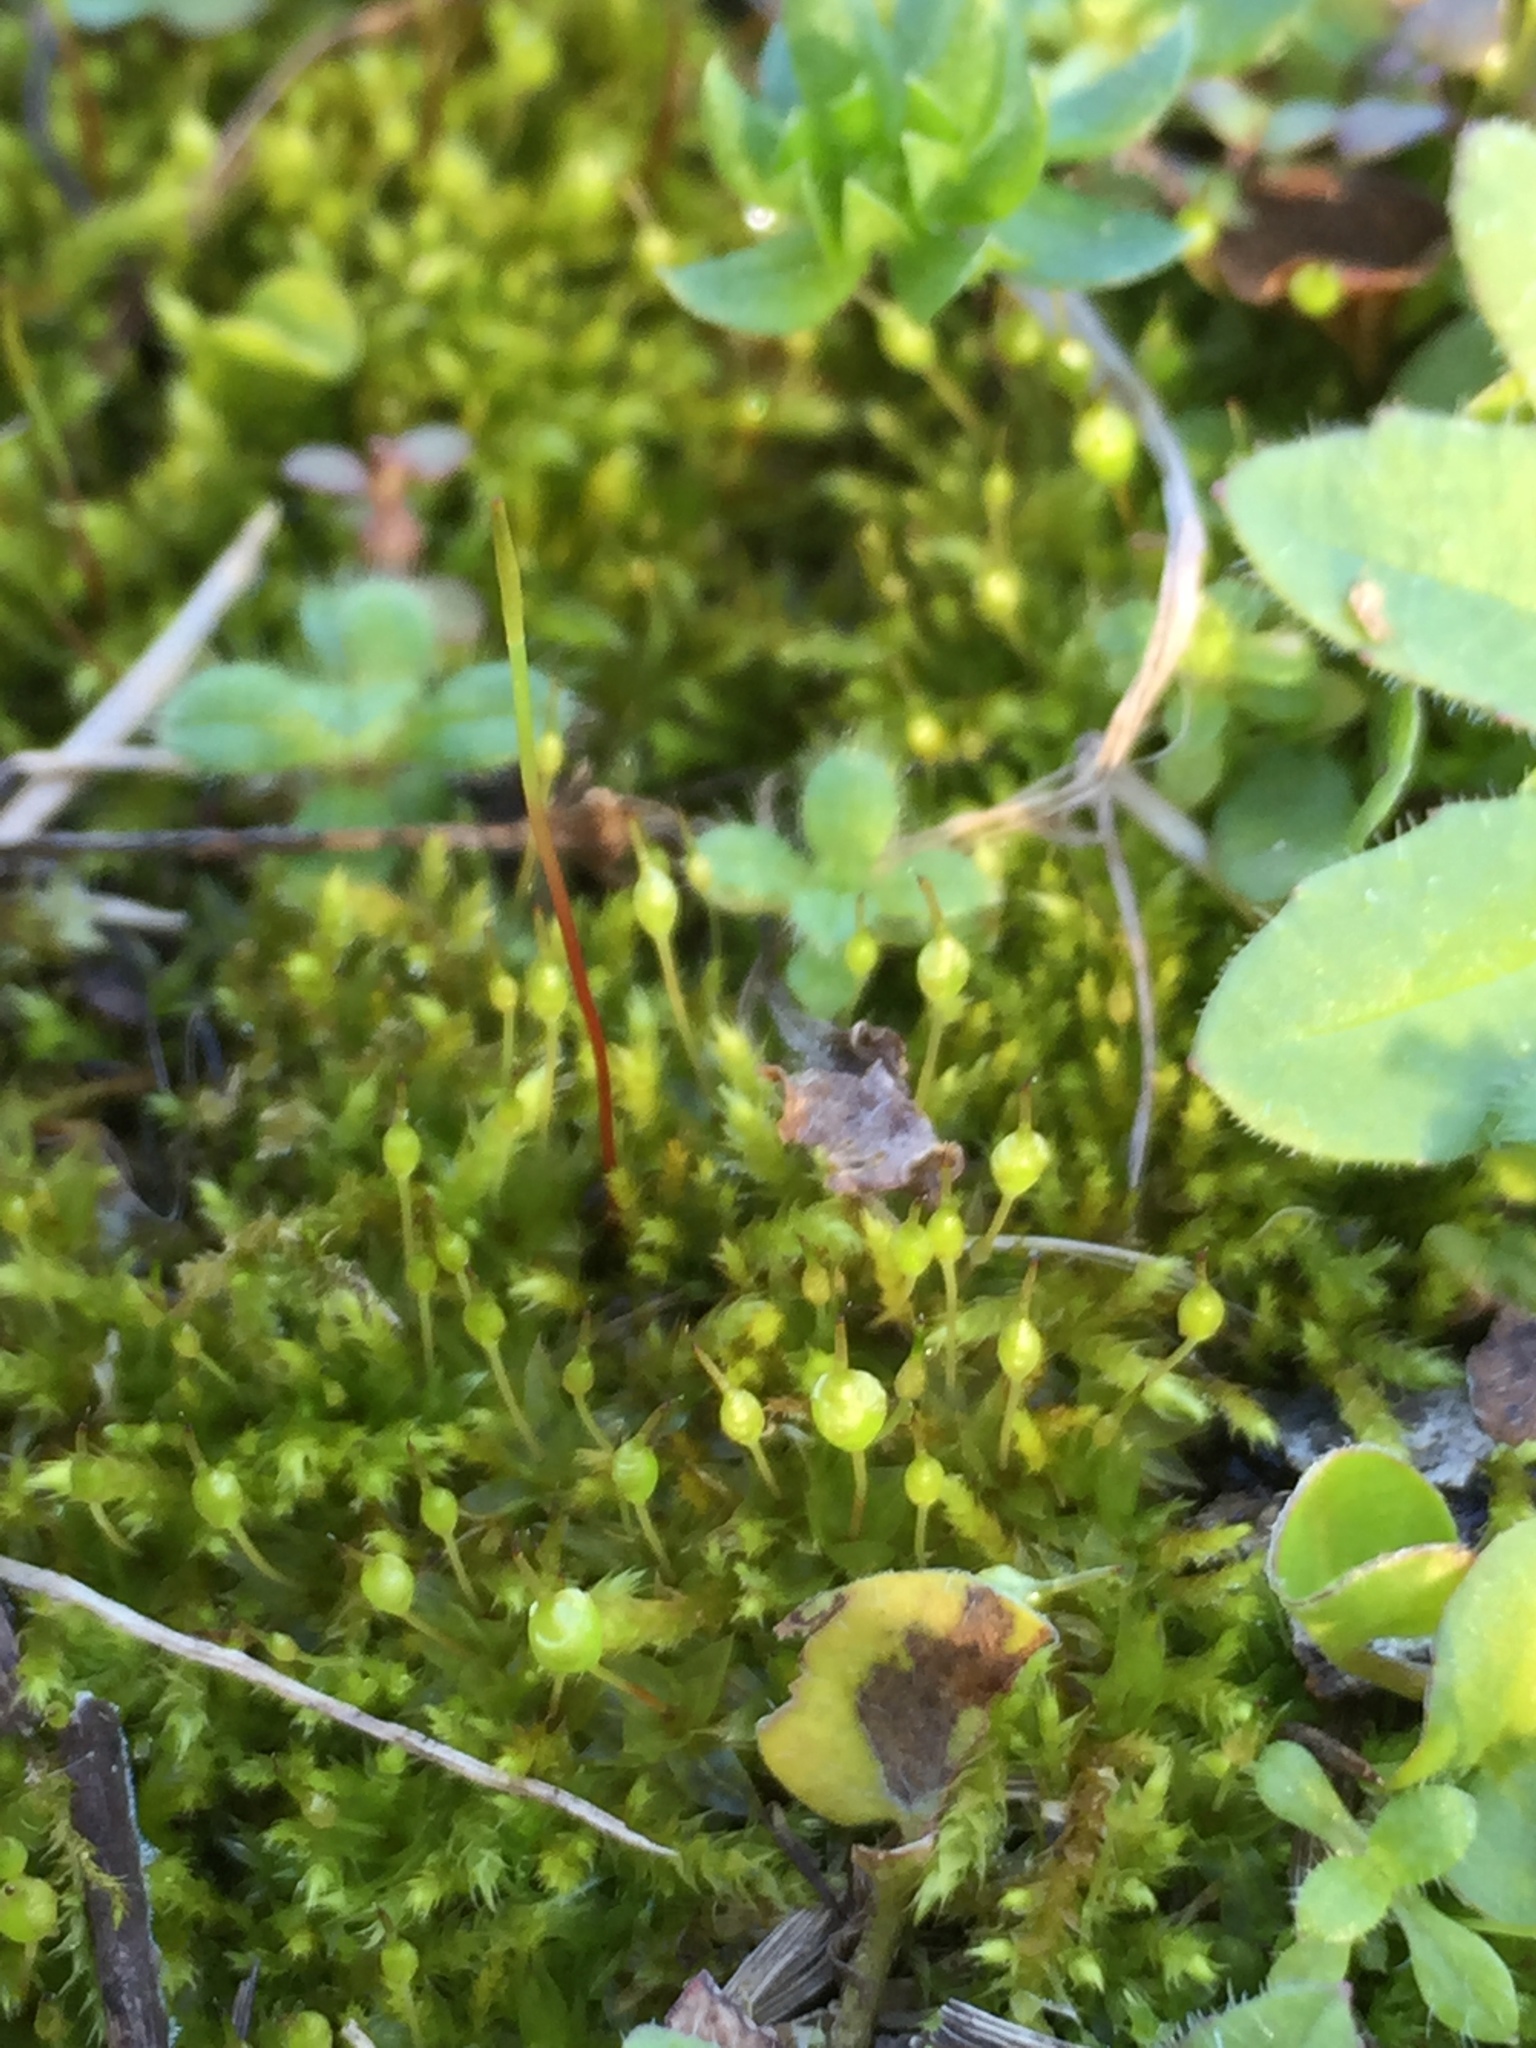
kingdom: Plantae
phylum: Bryophyta
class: Bryopsida
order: Funariales
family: Funariaceae
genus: Physcomitrium
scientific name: Physcomitrium pyriforme
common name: Common bladder-moss
